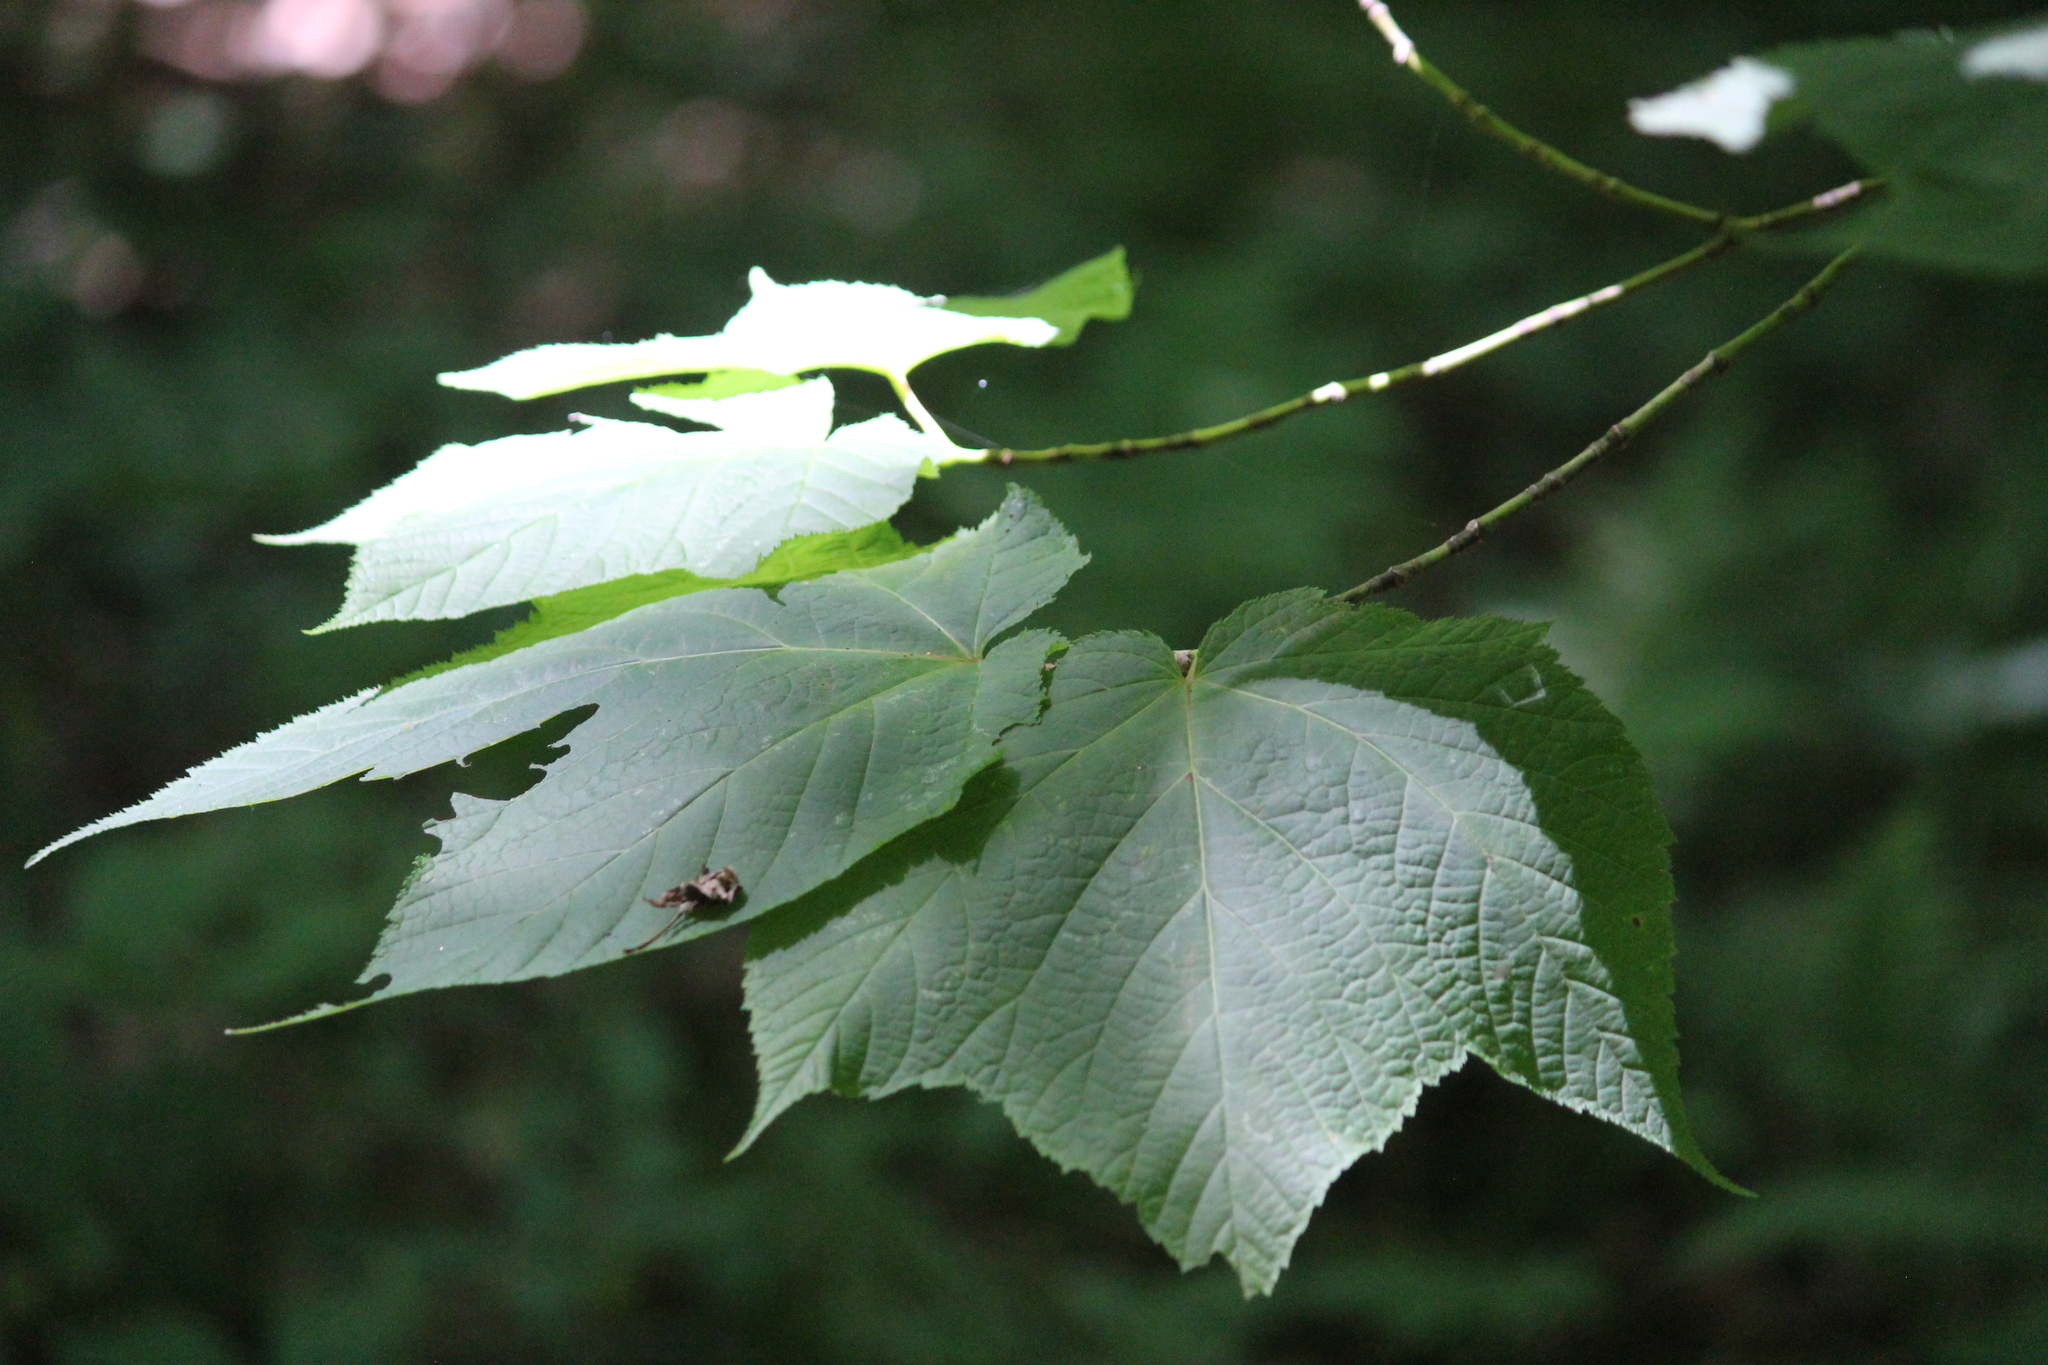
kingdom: Plantae
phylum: Tracheophyta
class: Magnoliopsida
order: Sapindales
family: Sapindaceae
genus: Acer
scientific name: Acer pensylvanicum
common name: Moosewood
